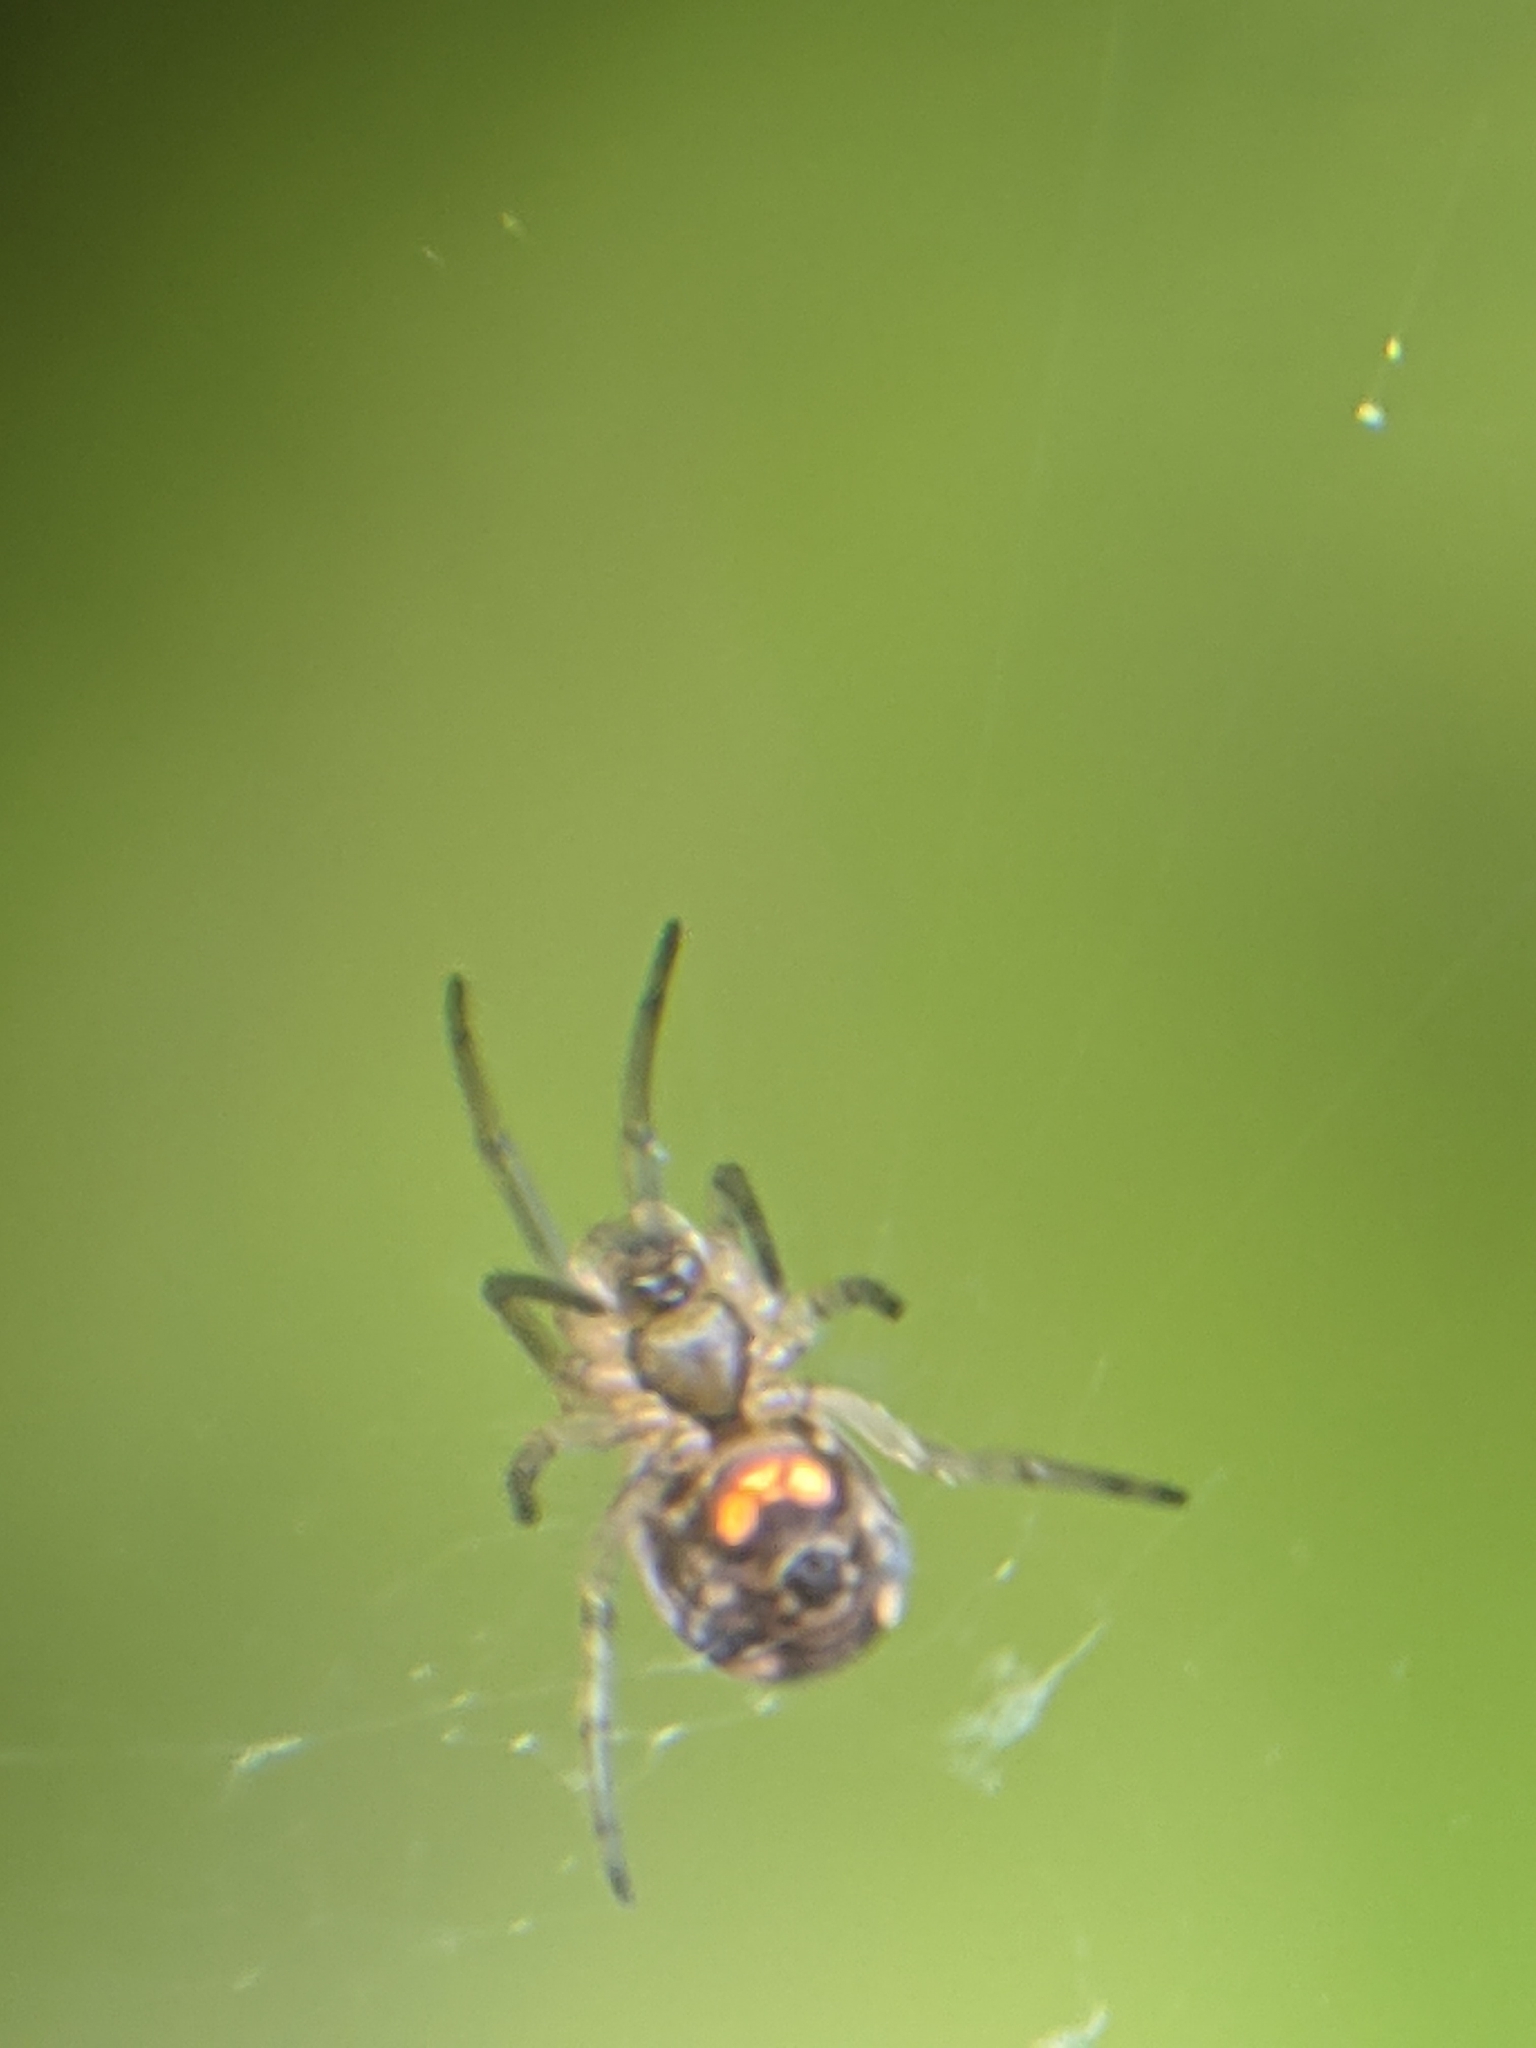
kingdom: Animalia
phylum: Arthropoda
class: Arachnida
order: Araneae
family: Tetragnathidae
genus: Leucauge
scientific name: Leucauge venusta
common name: Longjawed orb weavers
